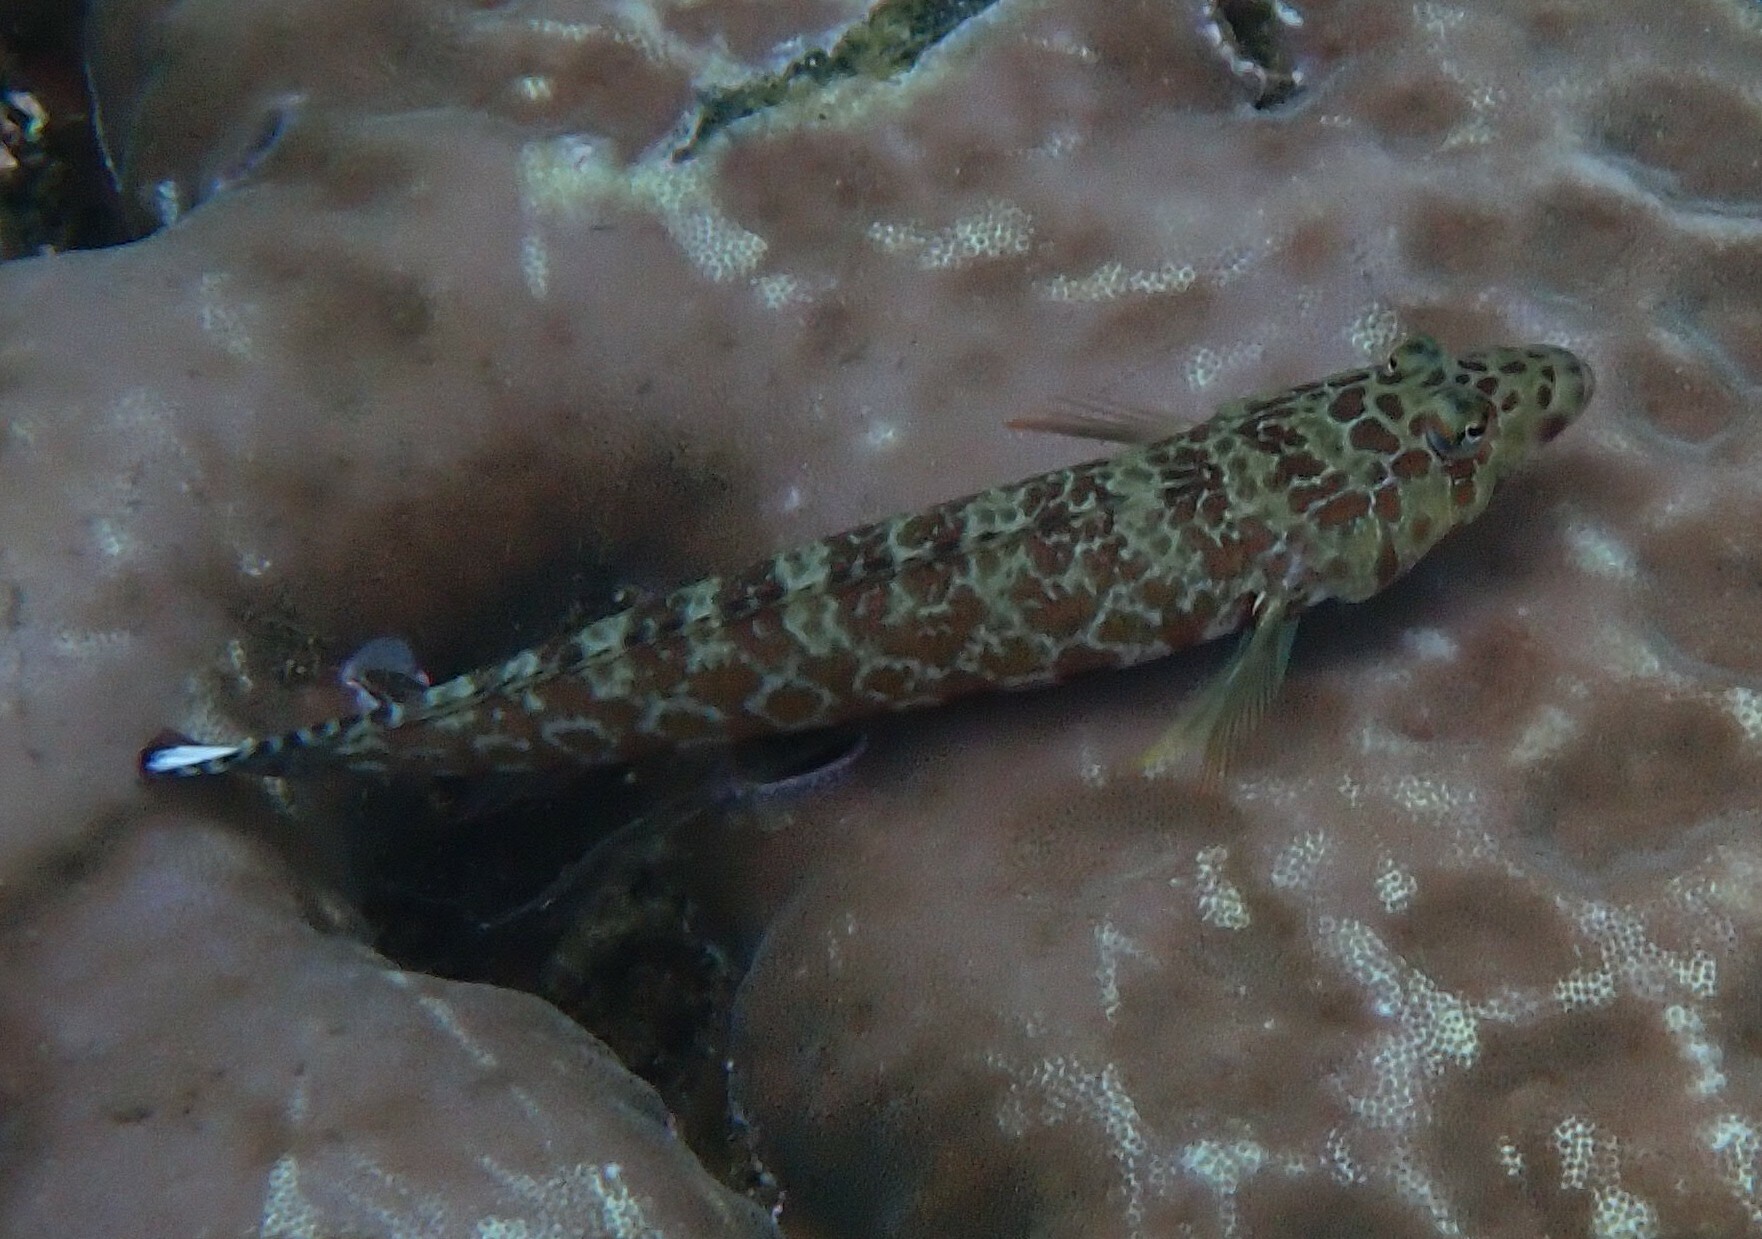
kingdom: Animalia
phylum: Chordata
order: Perciformes
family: Pinguipedidae
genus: Parapercis
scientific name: Parapercis millepunctata
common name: Black-dotted sandperch
